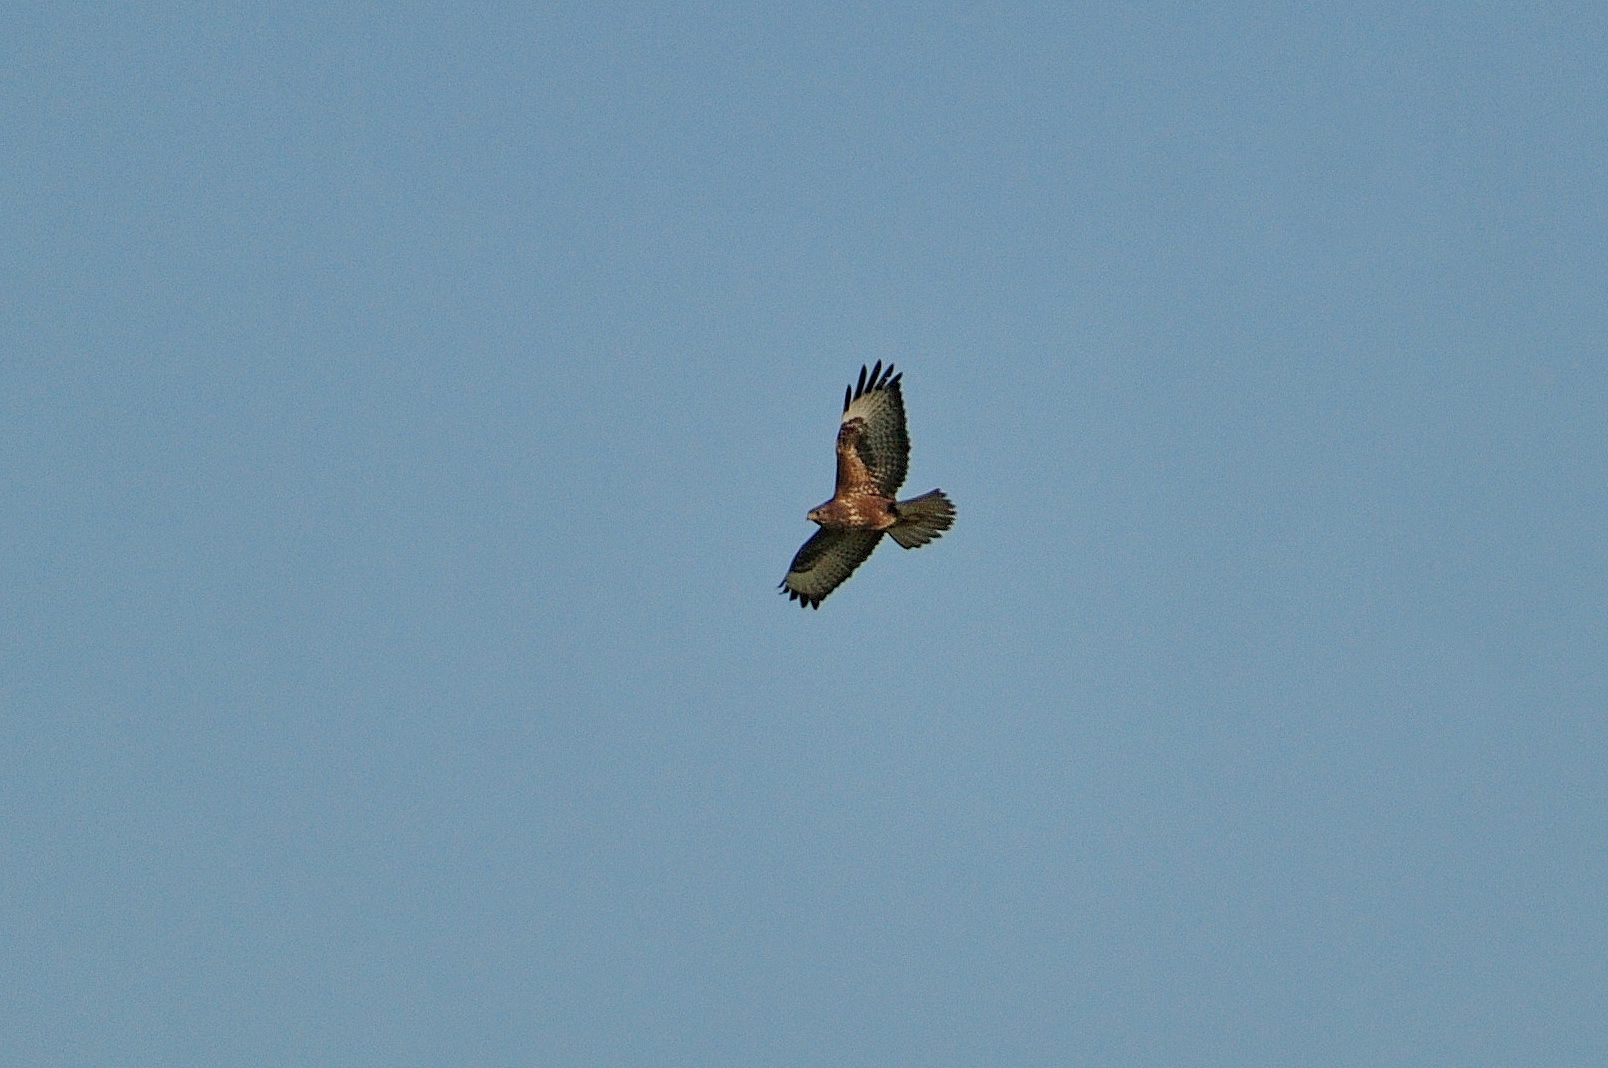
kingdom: Animalia
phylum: Chordata
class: Aves
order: Accipitriformes
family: Accipitridae
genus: Buteo
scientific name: Buteo buteo
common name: Common buzzard
